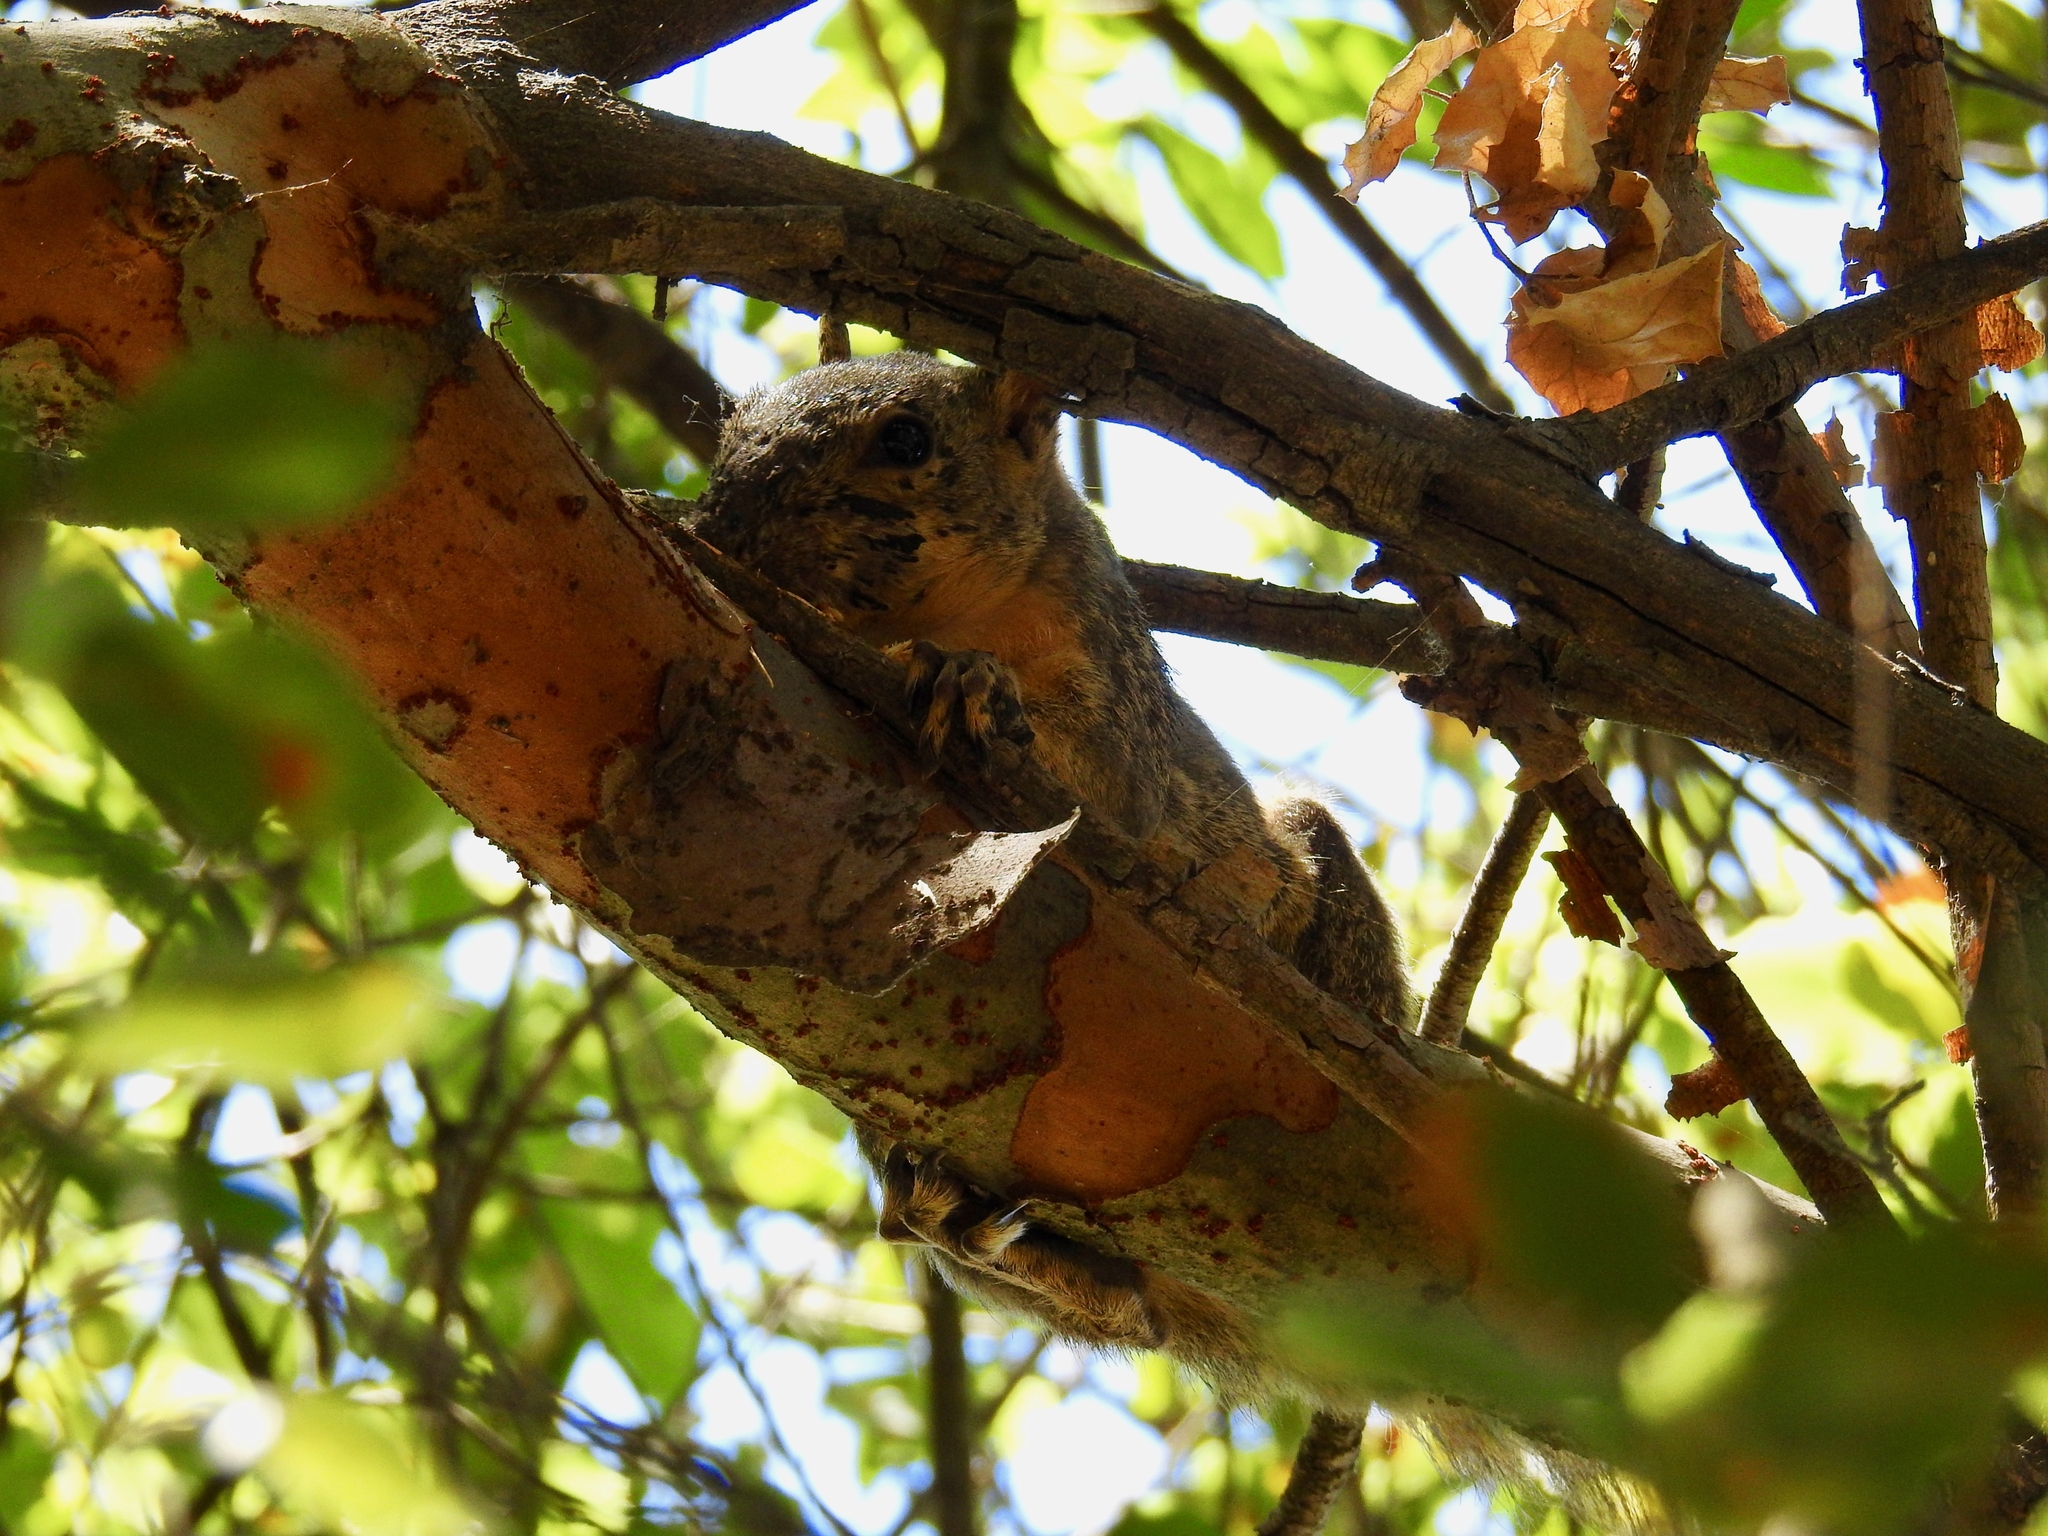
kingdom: Animalia
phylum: Chordata
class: Mammalia
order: Rodentia
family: Sciuridae
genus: Sciurus
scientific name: Sciurus niger
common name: Fox squirrel
